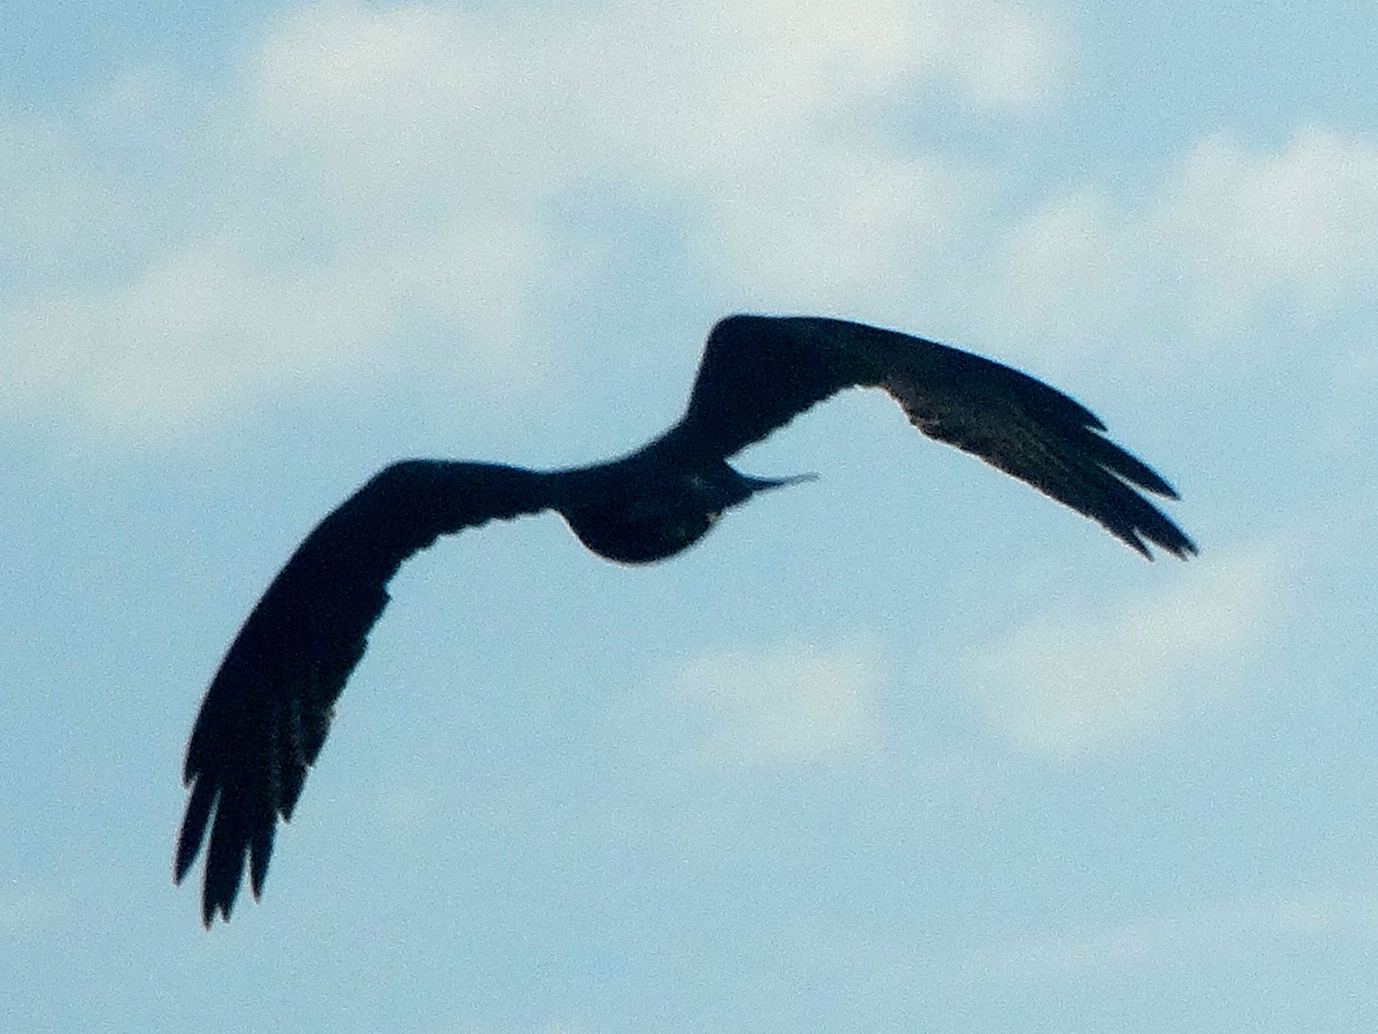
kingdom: Animalia
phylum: Chordata
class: Aves
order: Accipitriformes
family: Accipitridae
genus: Rostrhamus
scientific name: Rostrhamus sociabilis
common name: Snail kite
